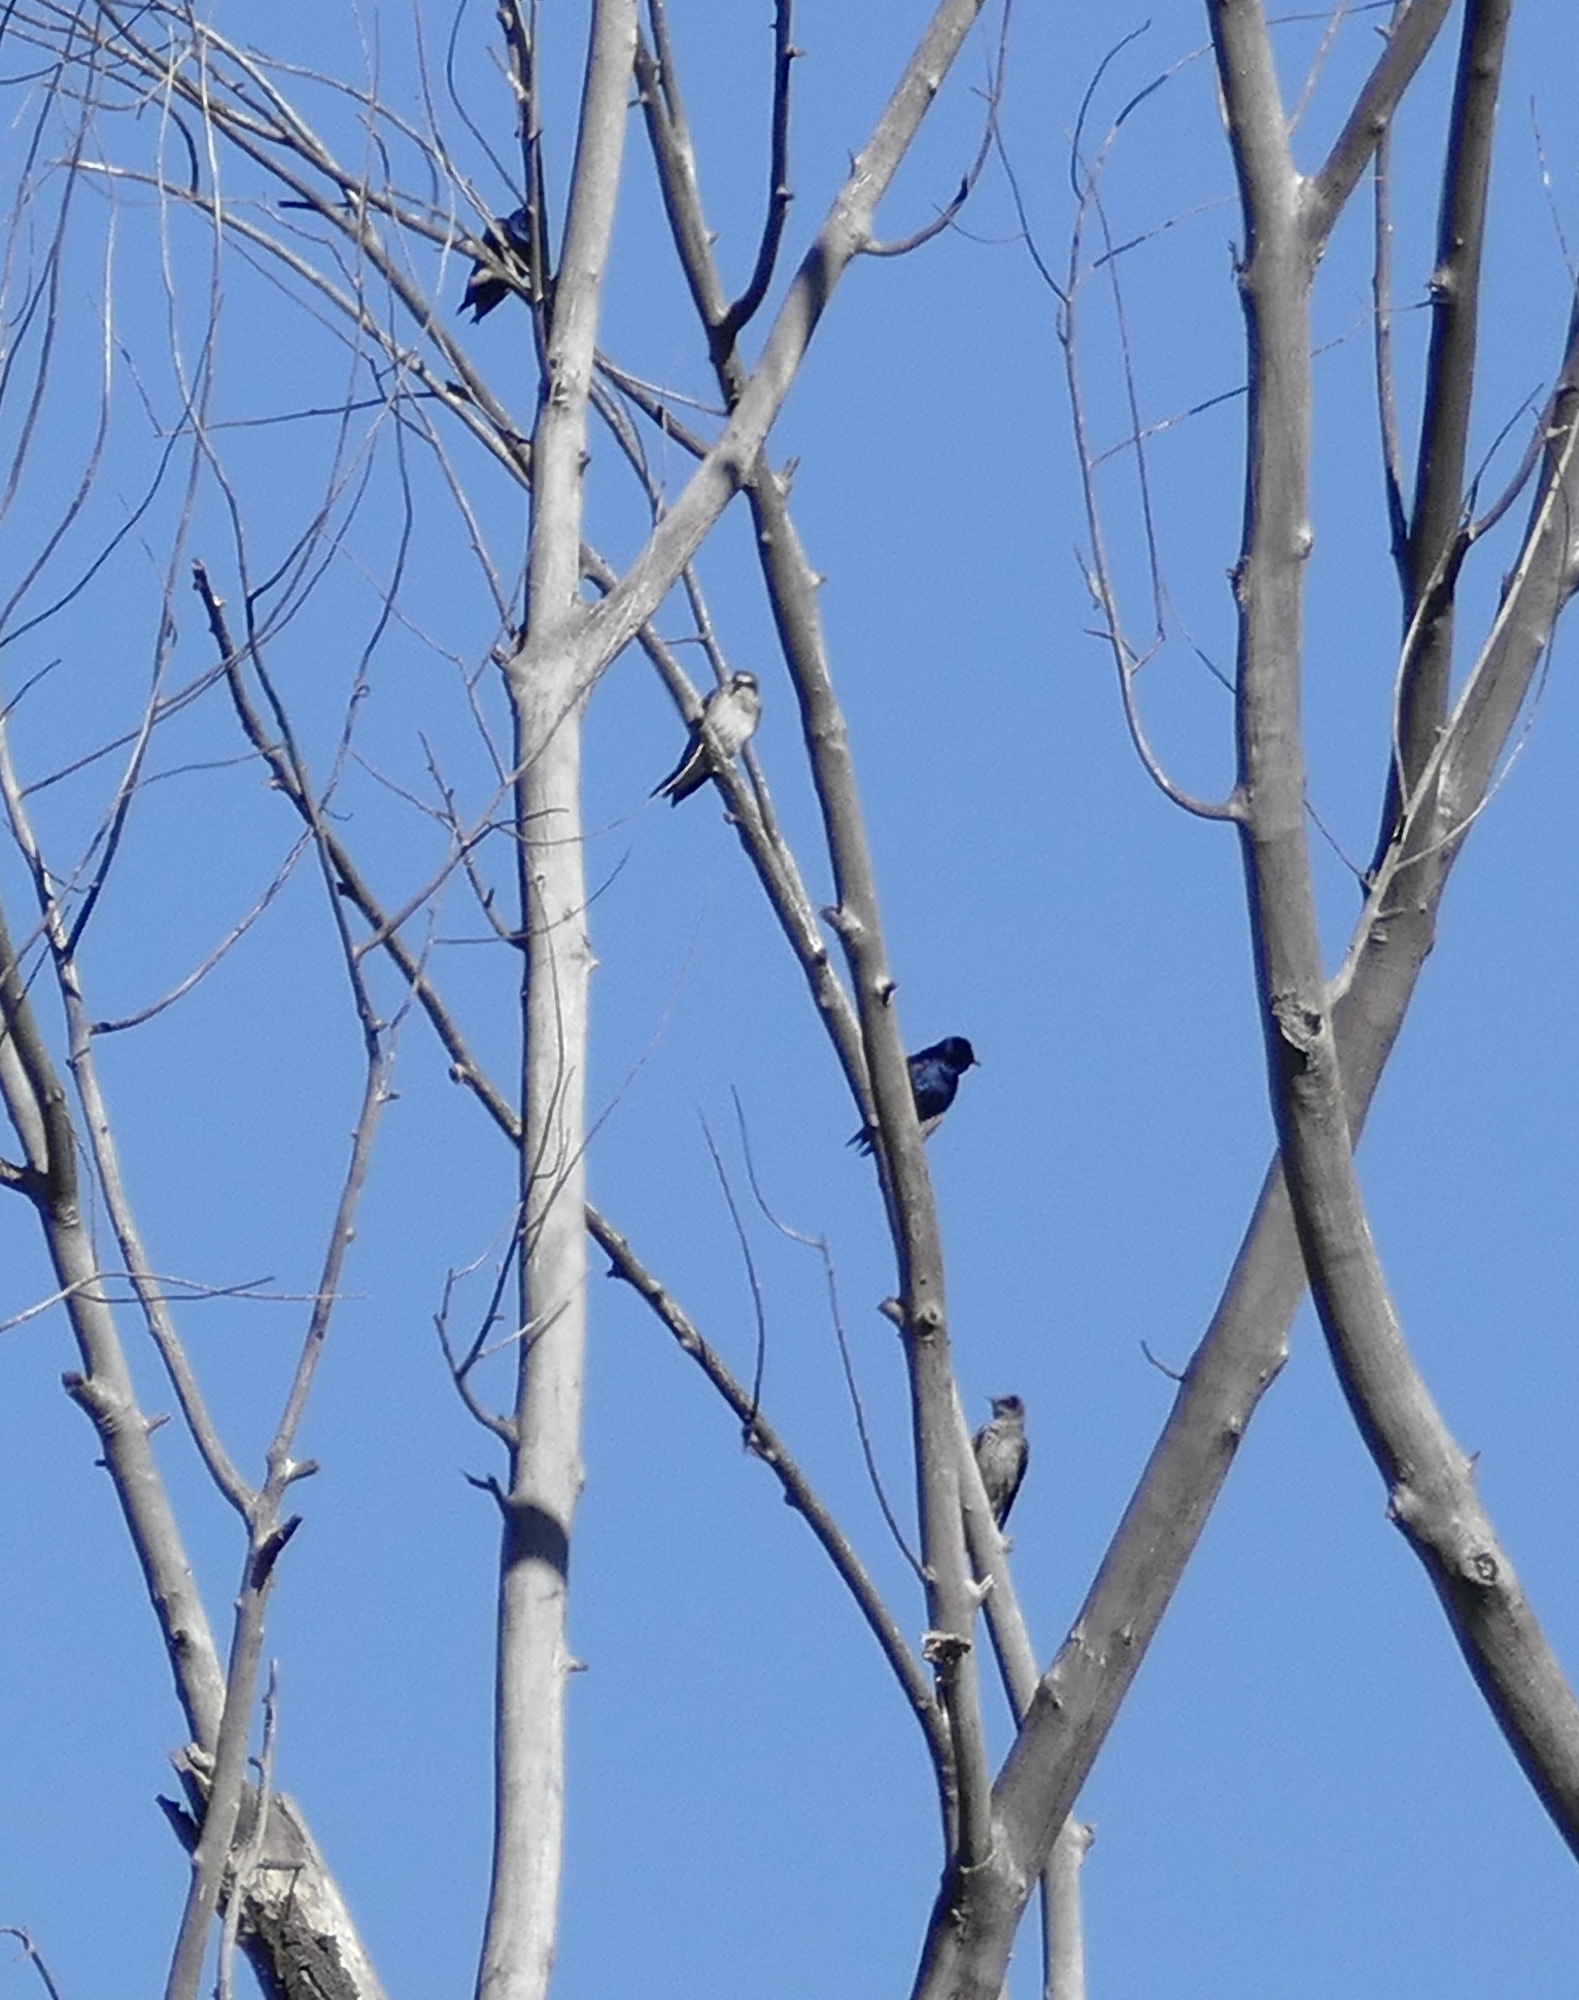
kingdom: Animalia
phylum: Chordata
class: Aves
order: Passeriformes
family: Hirundinidae
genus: Progne
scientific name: Progne subis
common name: Purple martin
